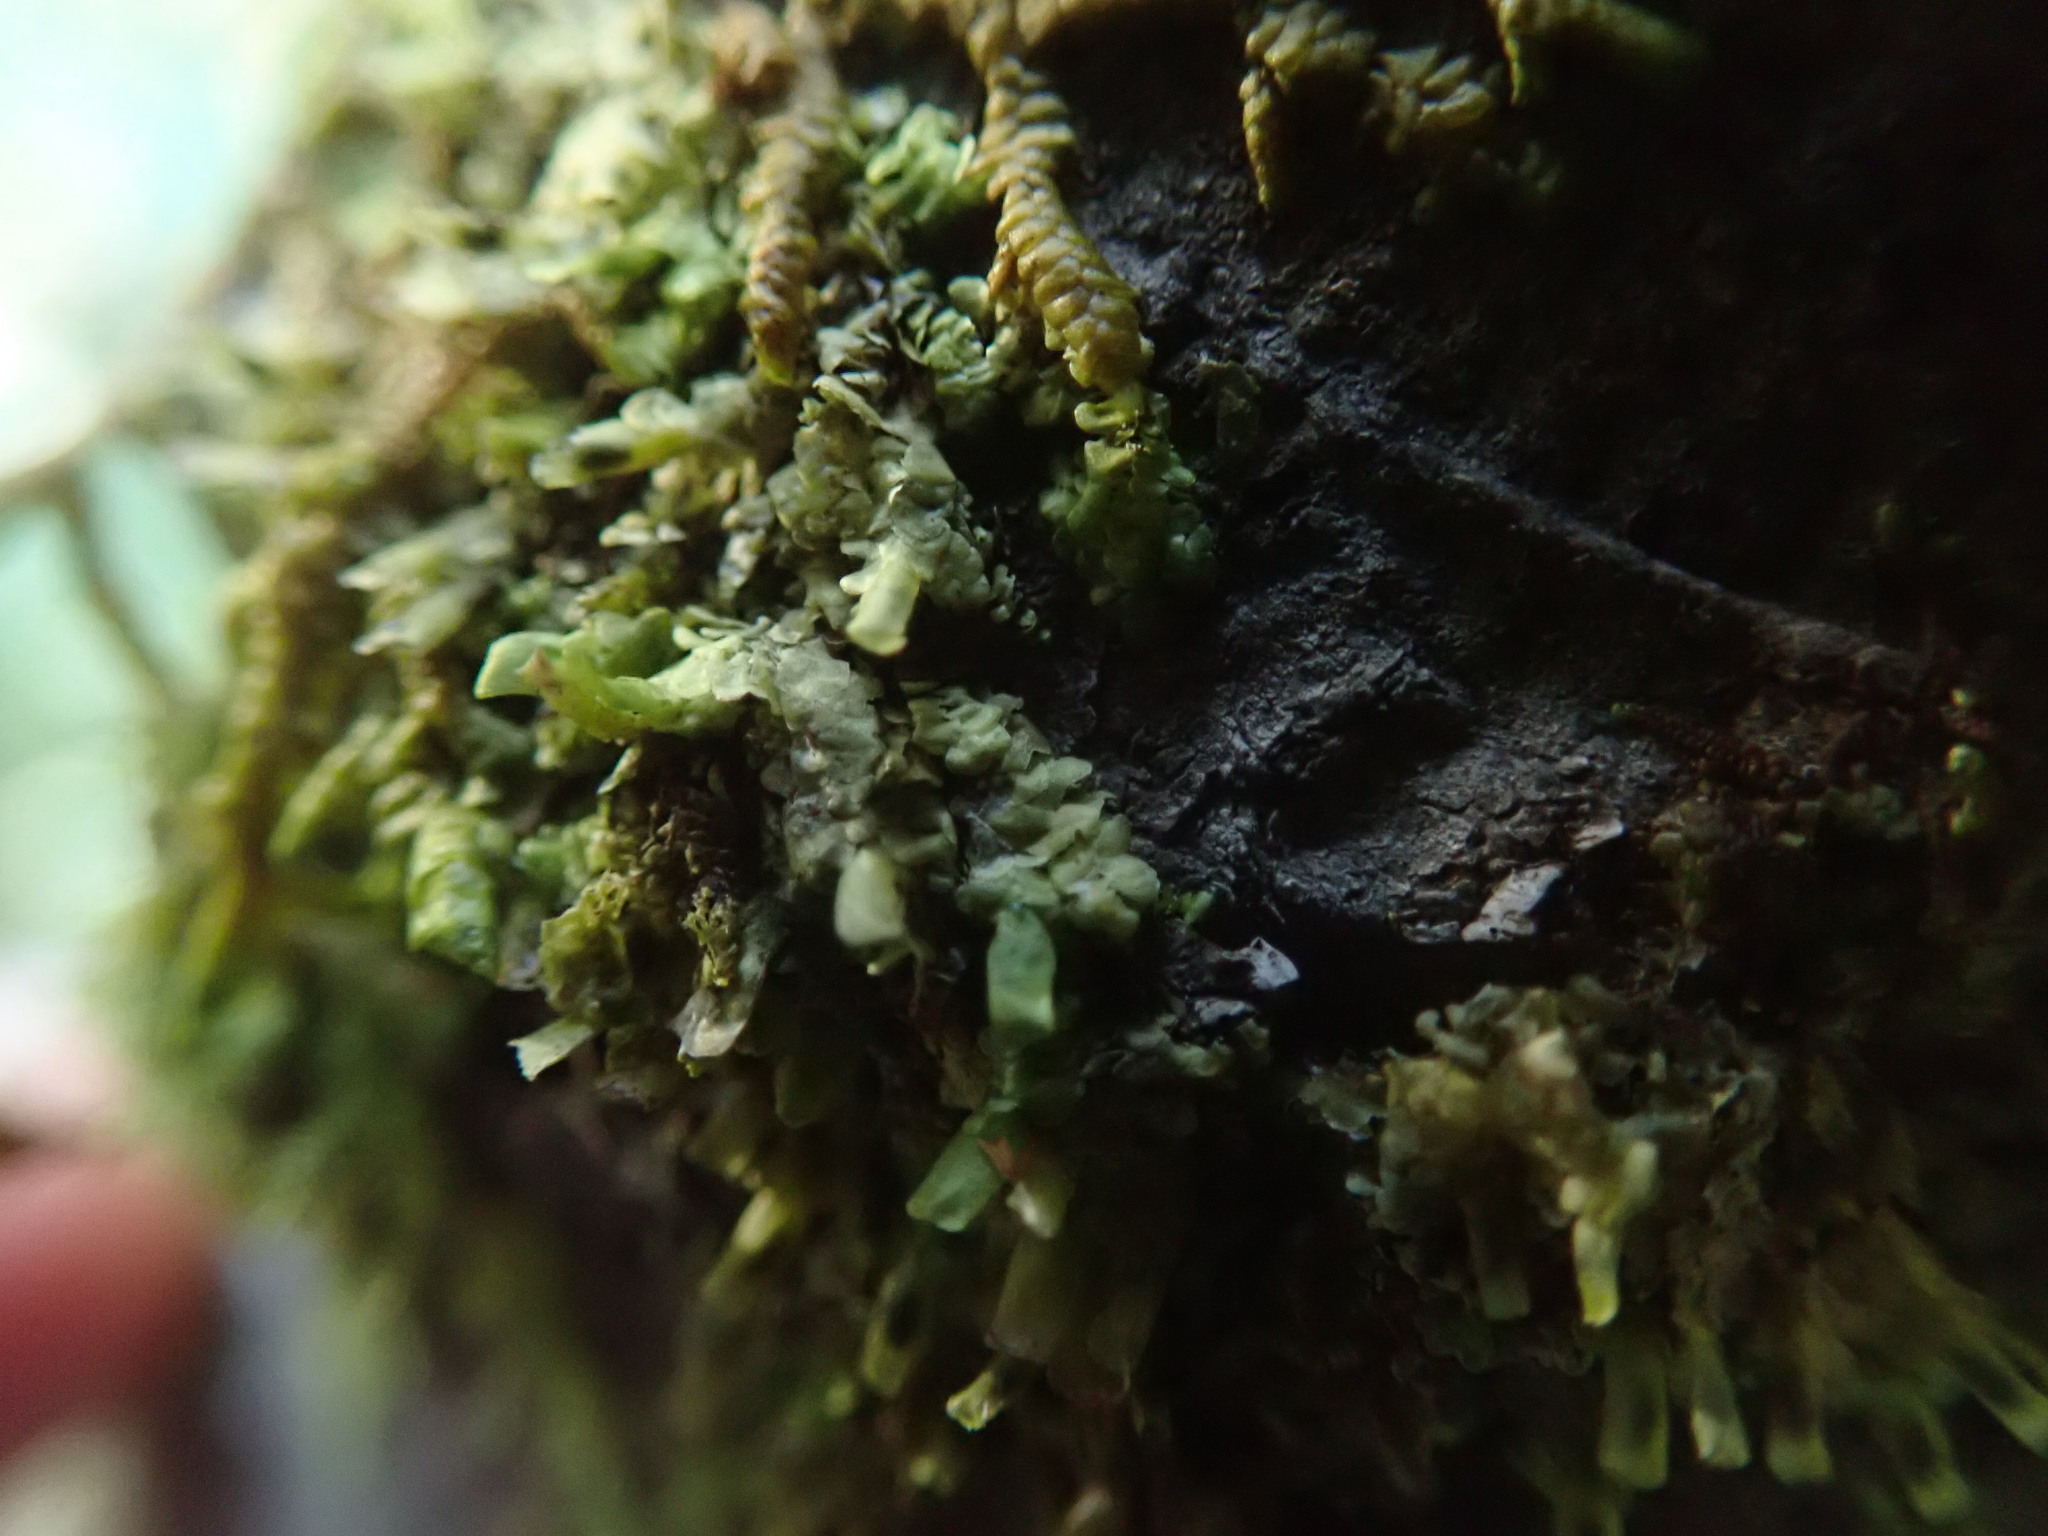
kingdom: Plantae
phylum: Marchantiophyta
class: Jungermanniopsida
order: Porellales
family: Radulaceae
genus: Radula
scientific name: Radula complanata
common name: Flat-leaved scalewort
